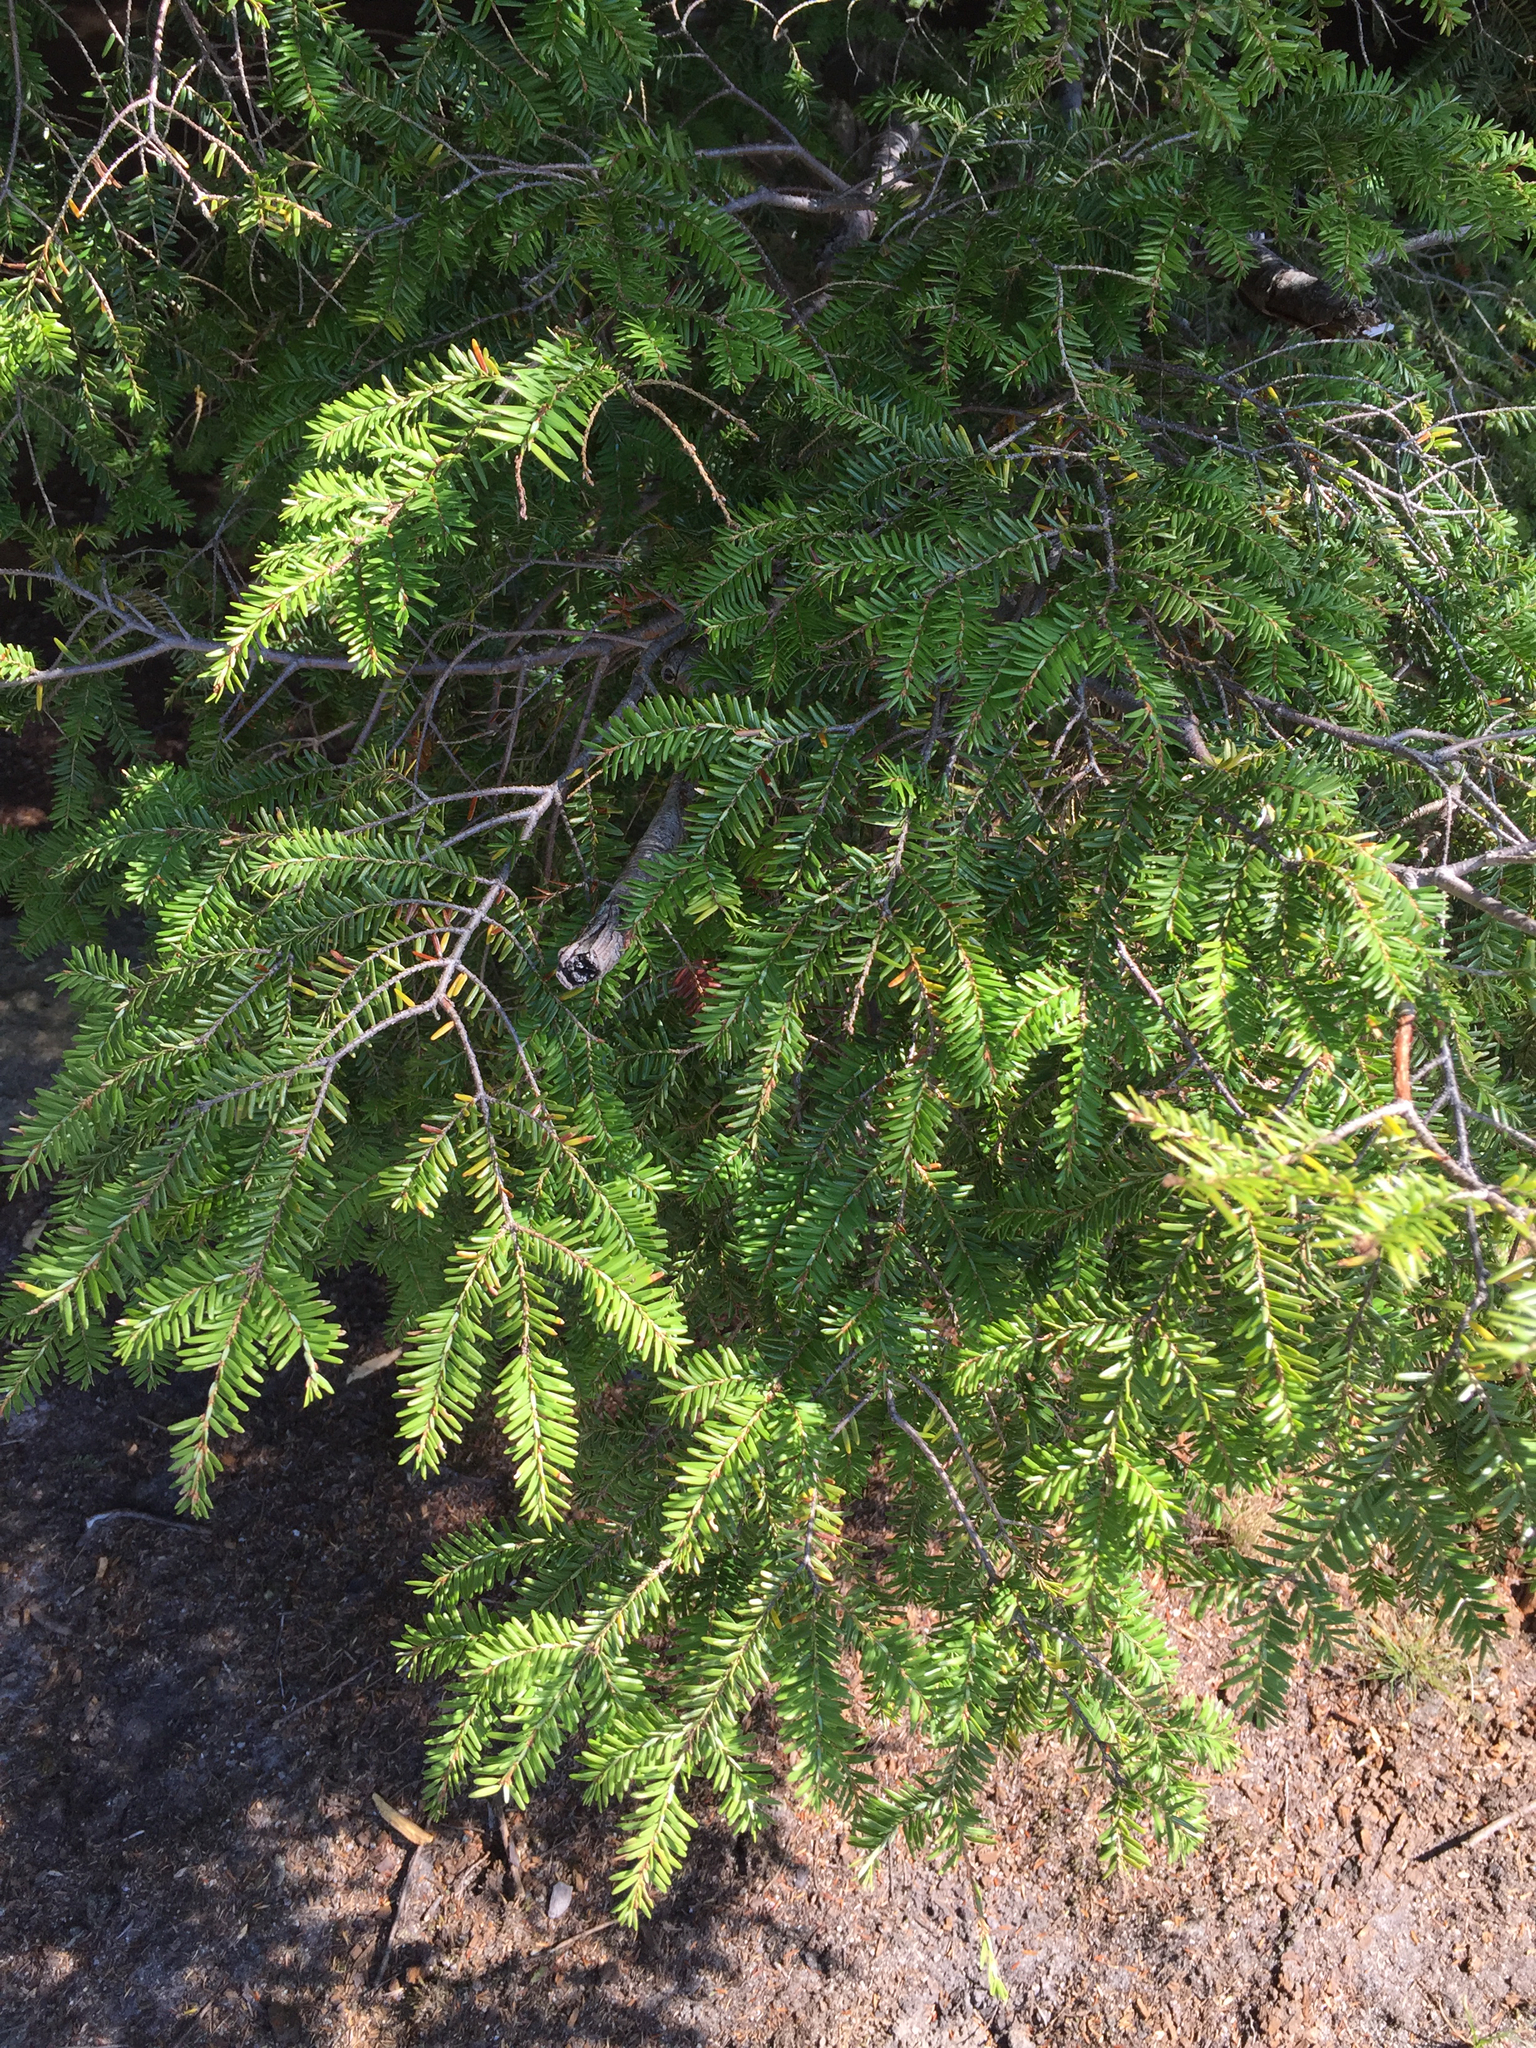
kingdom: Plantae
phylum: Tracheophyta
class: Pinopsida
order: Pinales
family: Pinaceae
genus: Tsuga
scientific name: Tsuga canadensis
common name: Eastern hemlock
